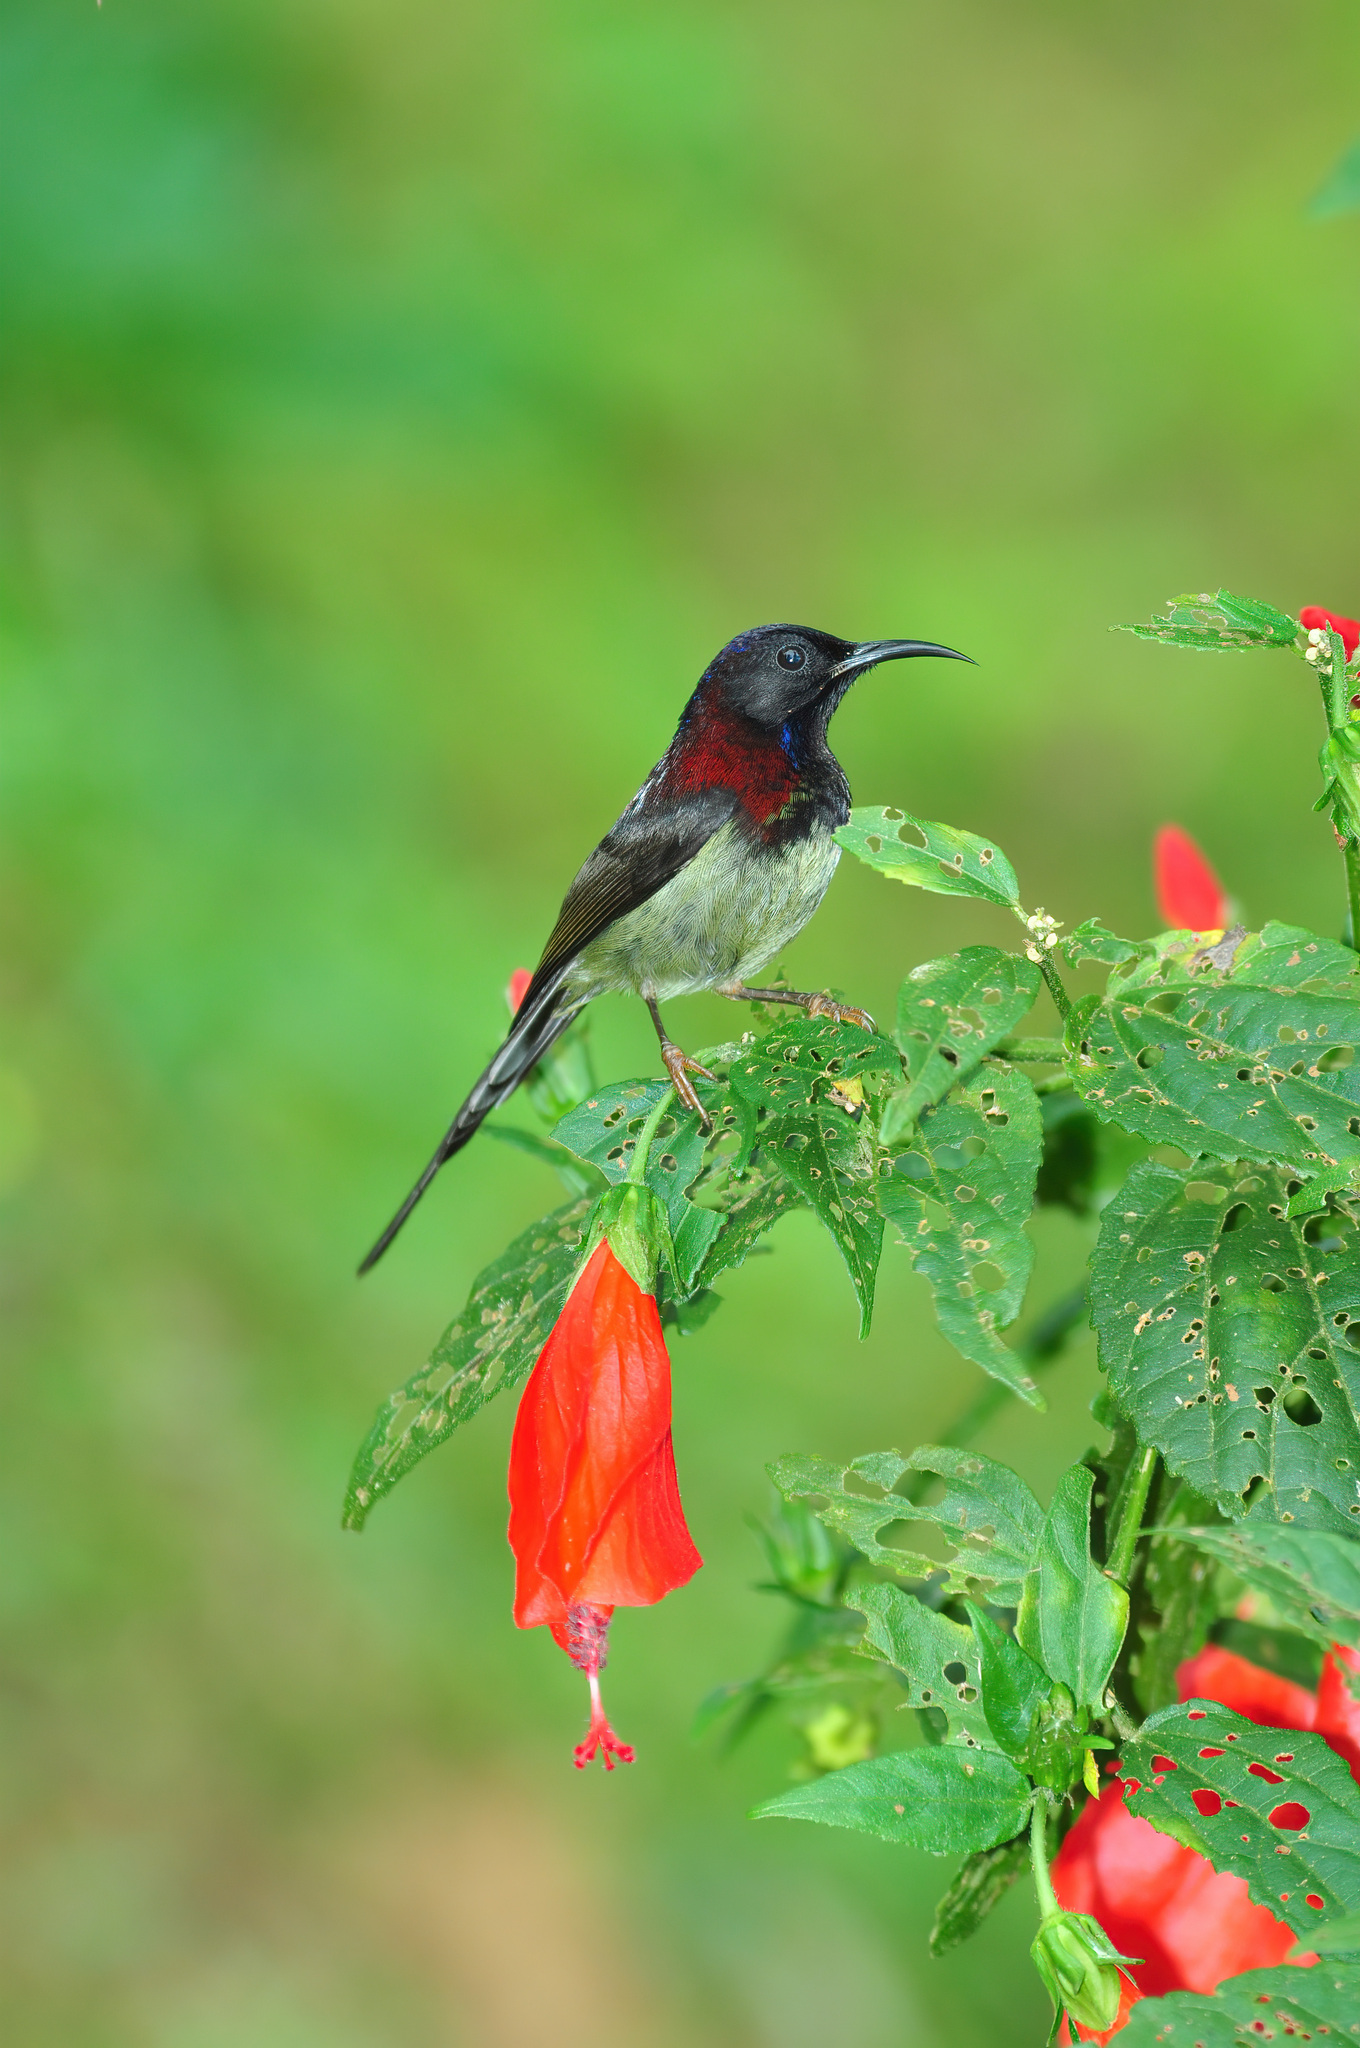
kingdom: Animalia
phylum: Chordata
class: Aves
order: Passeriformes
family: Nectariniidae
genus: Aethopyga
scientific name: Aethopyga saturata
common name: Black-throated sunbird
